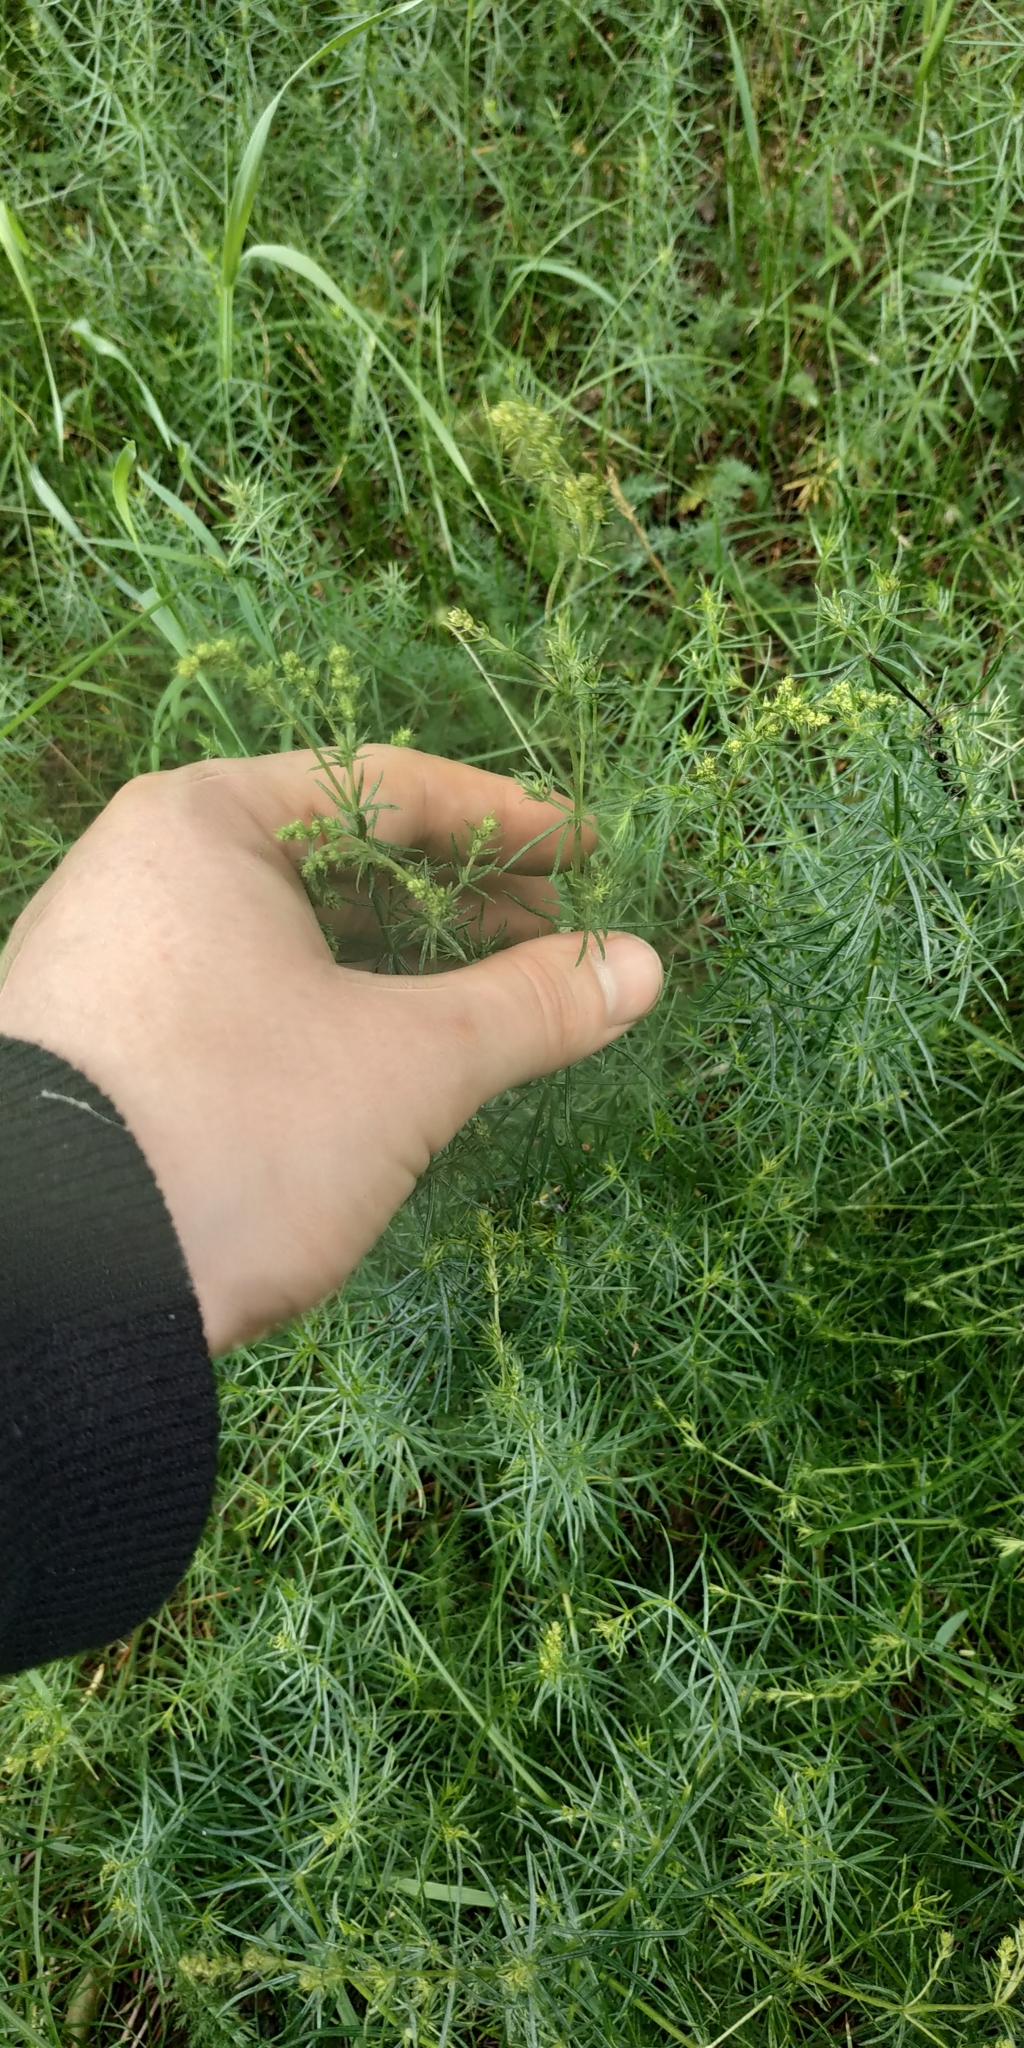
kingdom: Plantae
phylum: Tracheophyta
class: Magnoliopsida
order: Gentianales
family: Rubiaceae
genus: Galium
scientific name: Galium verum
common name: Lady's bedstraw
